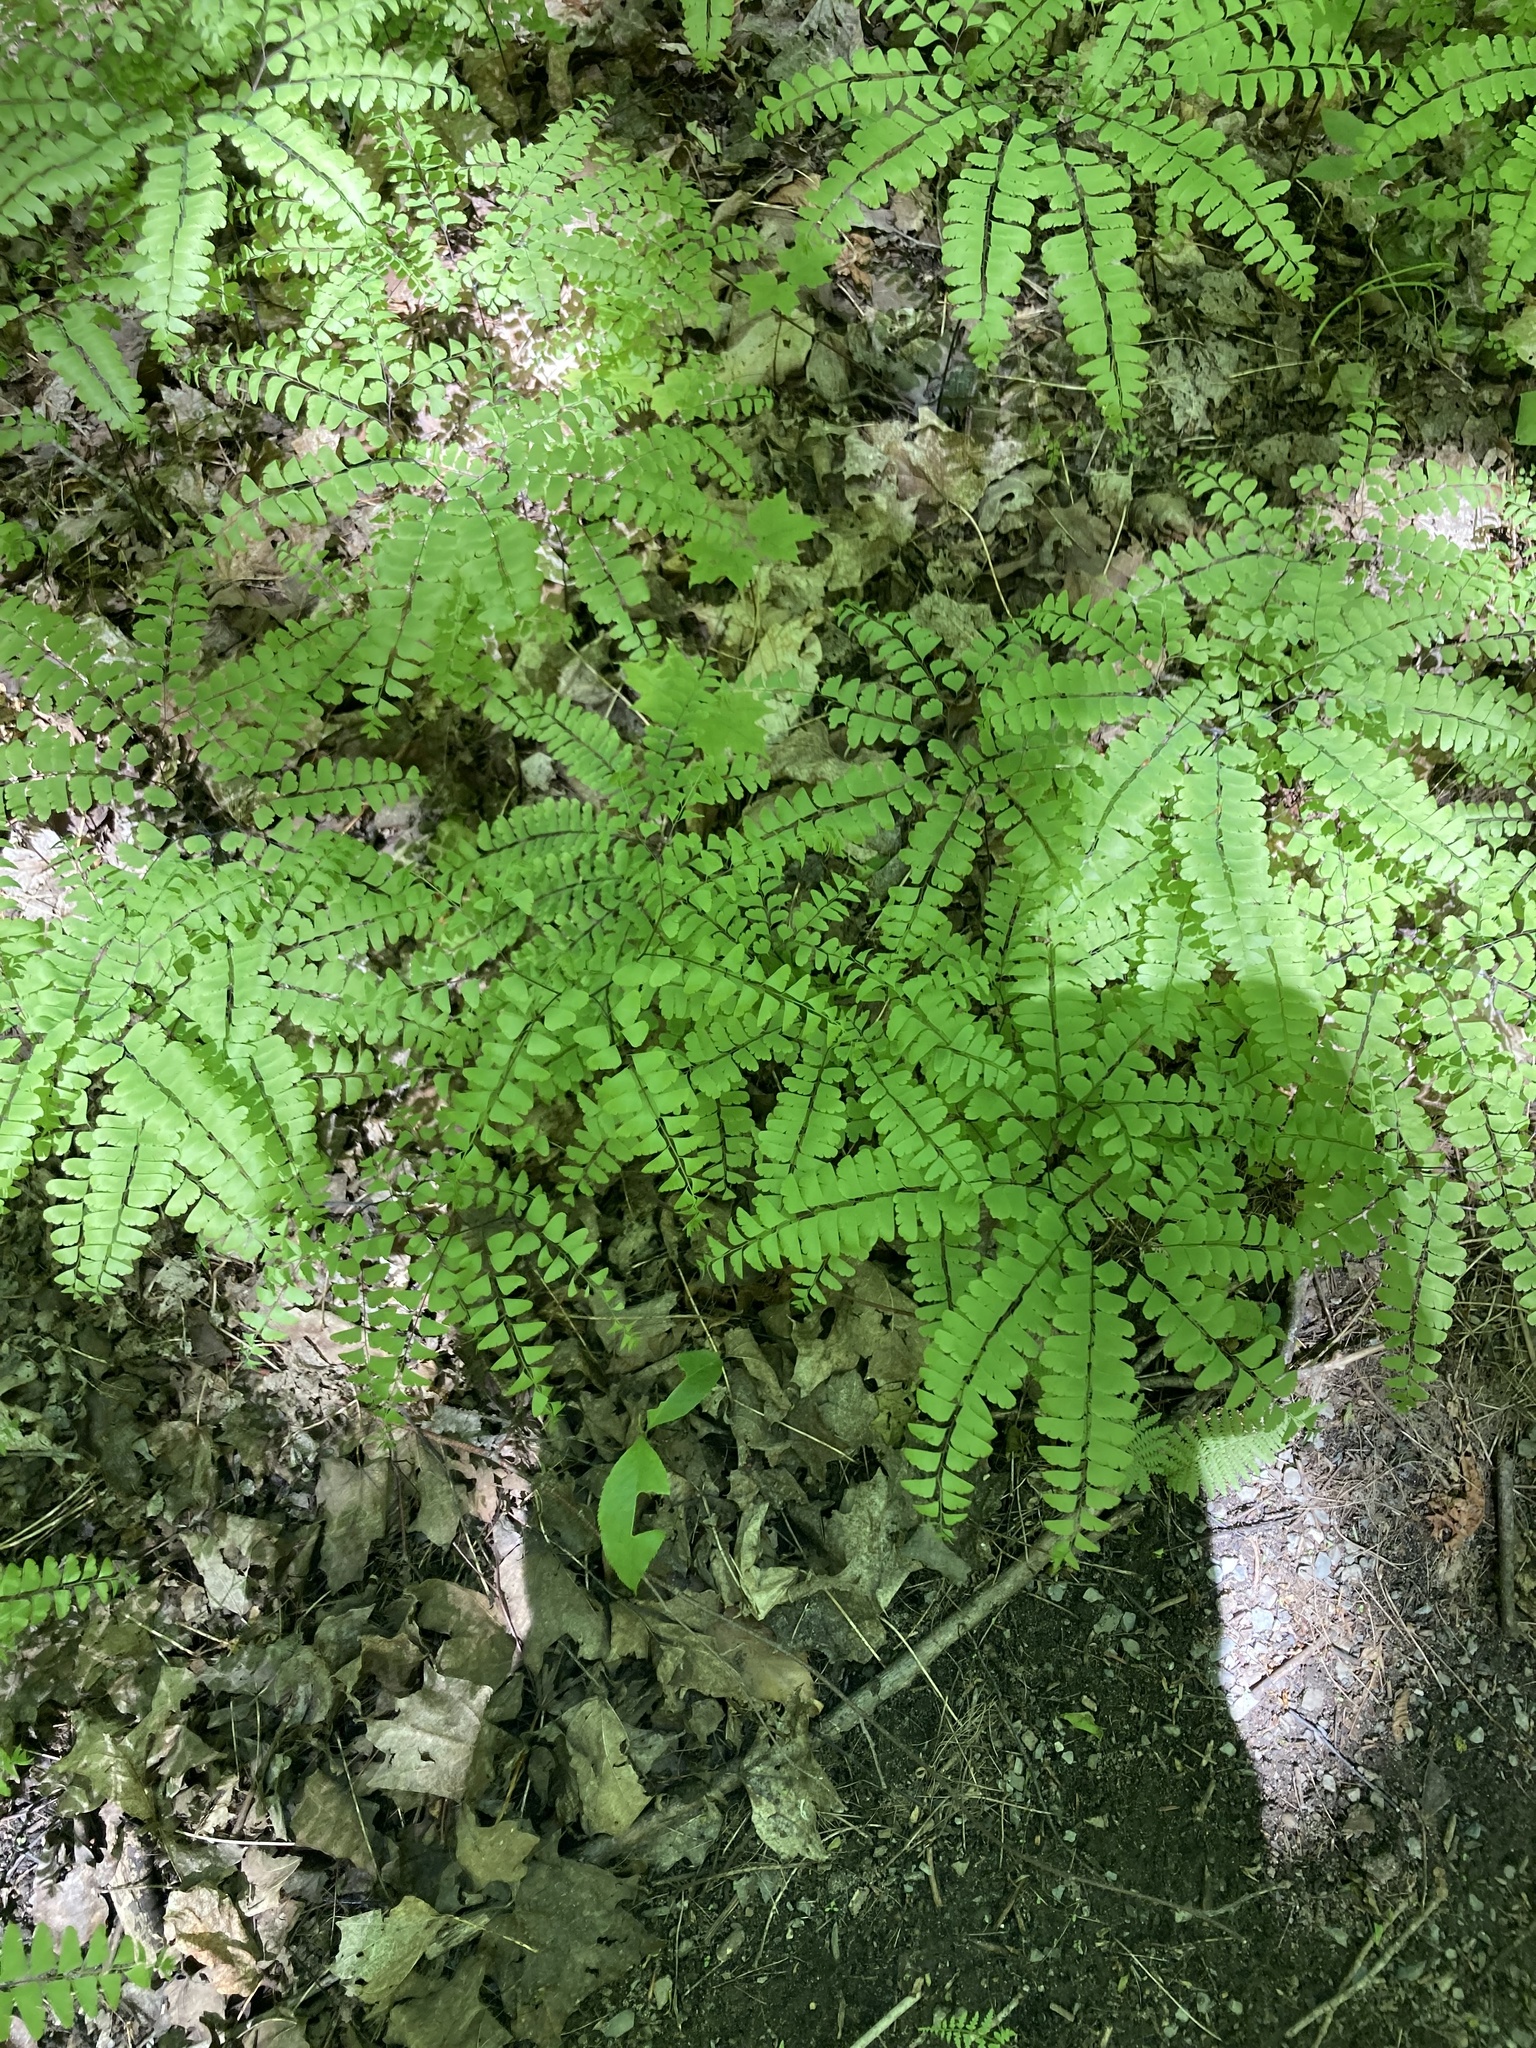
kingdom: Plantae
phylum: Tracheophyta
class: Polypodiopsida
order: Polypodiales
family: Pteridaceae
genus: Adiantum
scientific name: Adiantum pedatum
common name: Five-finger fern
